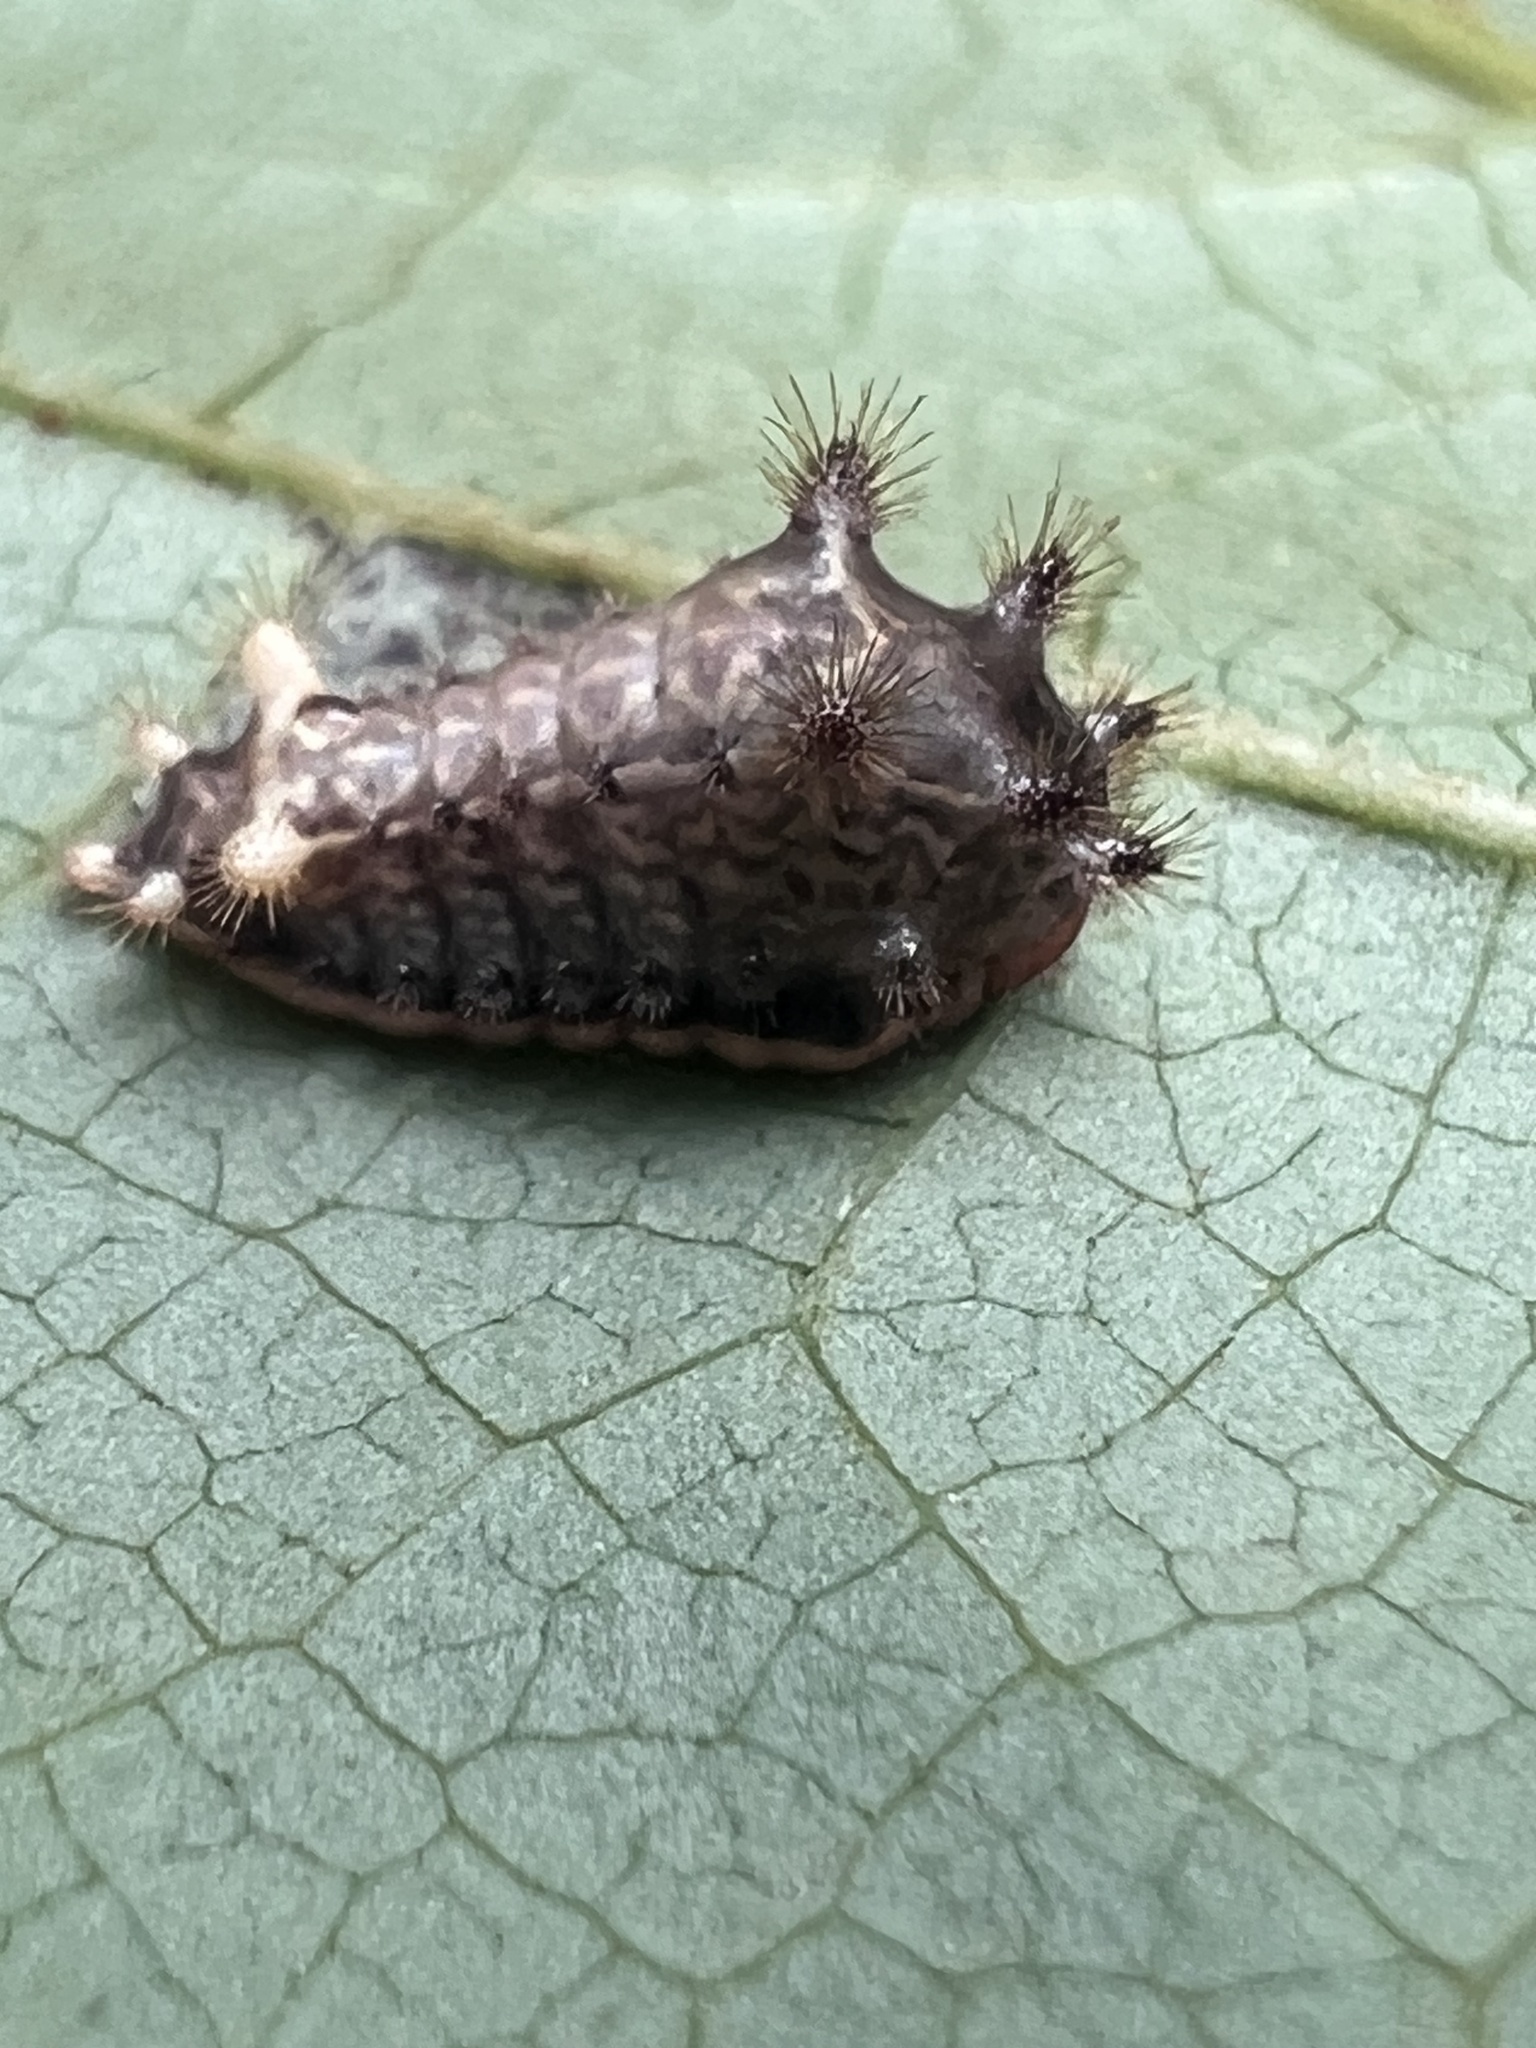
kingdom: Animalia
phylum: Arthropoda
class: Insecta
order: Lepidoptera
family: Limacodidae
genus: Parasa
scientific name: Parasa chloris
